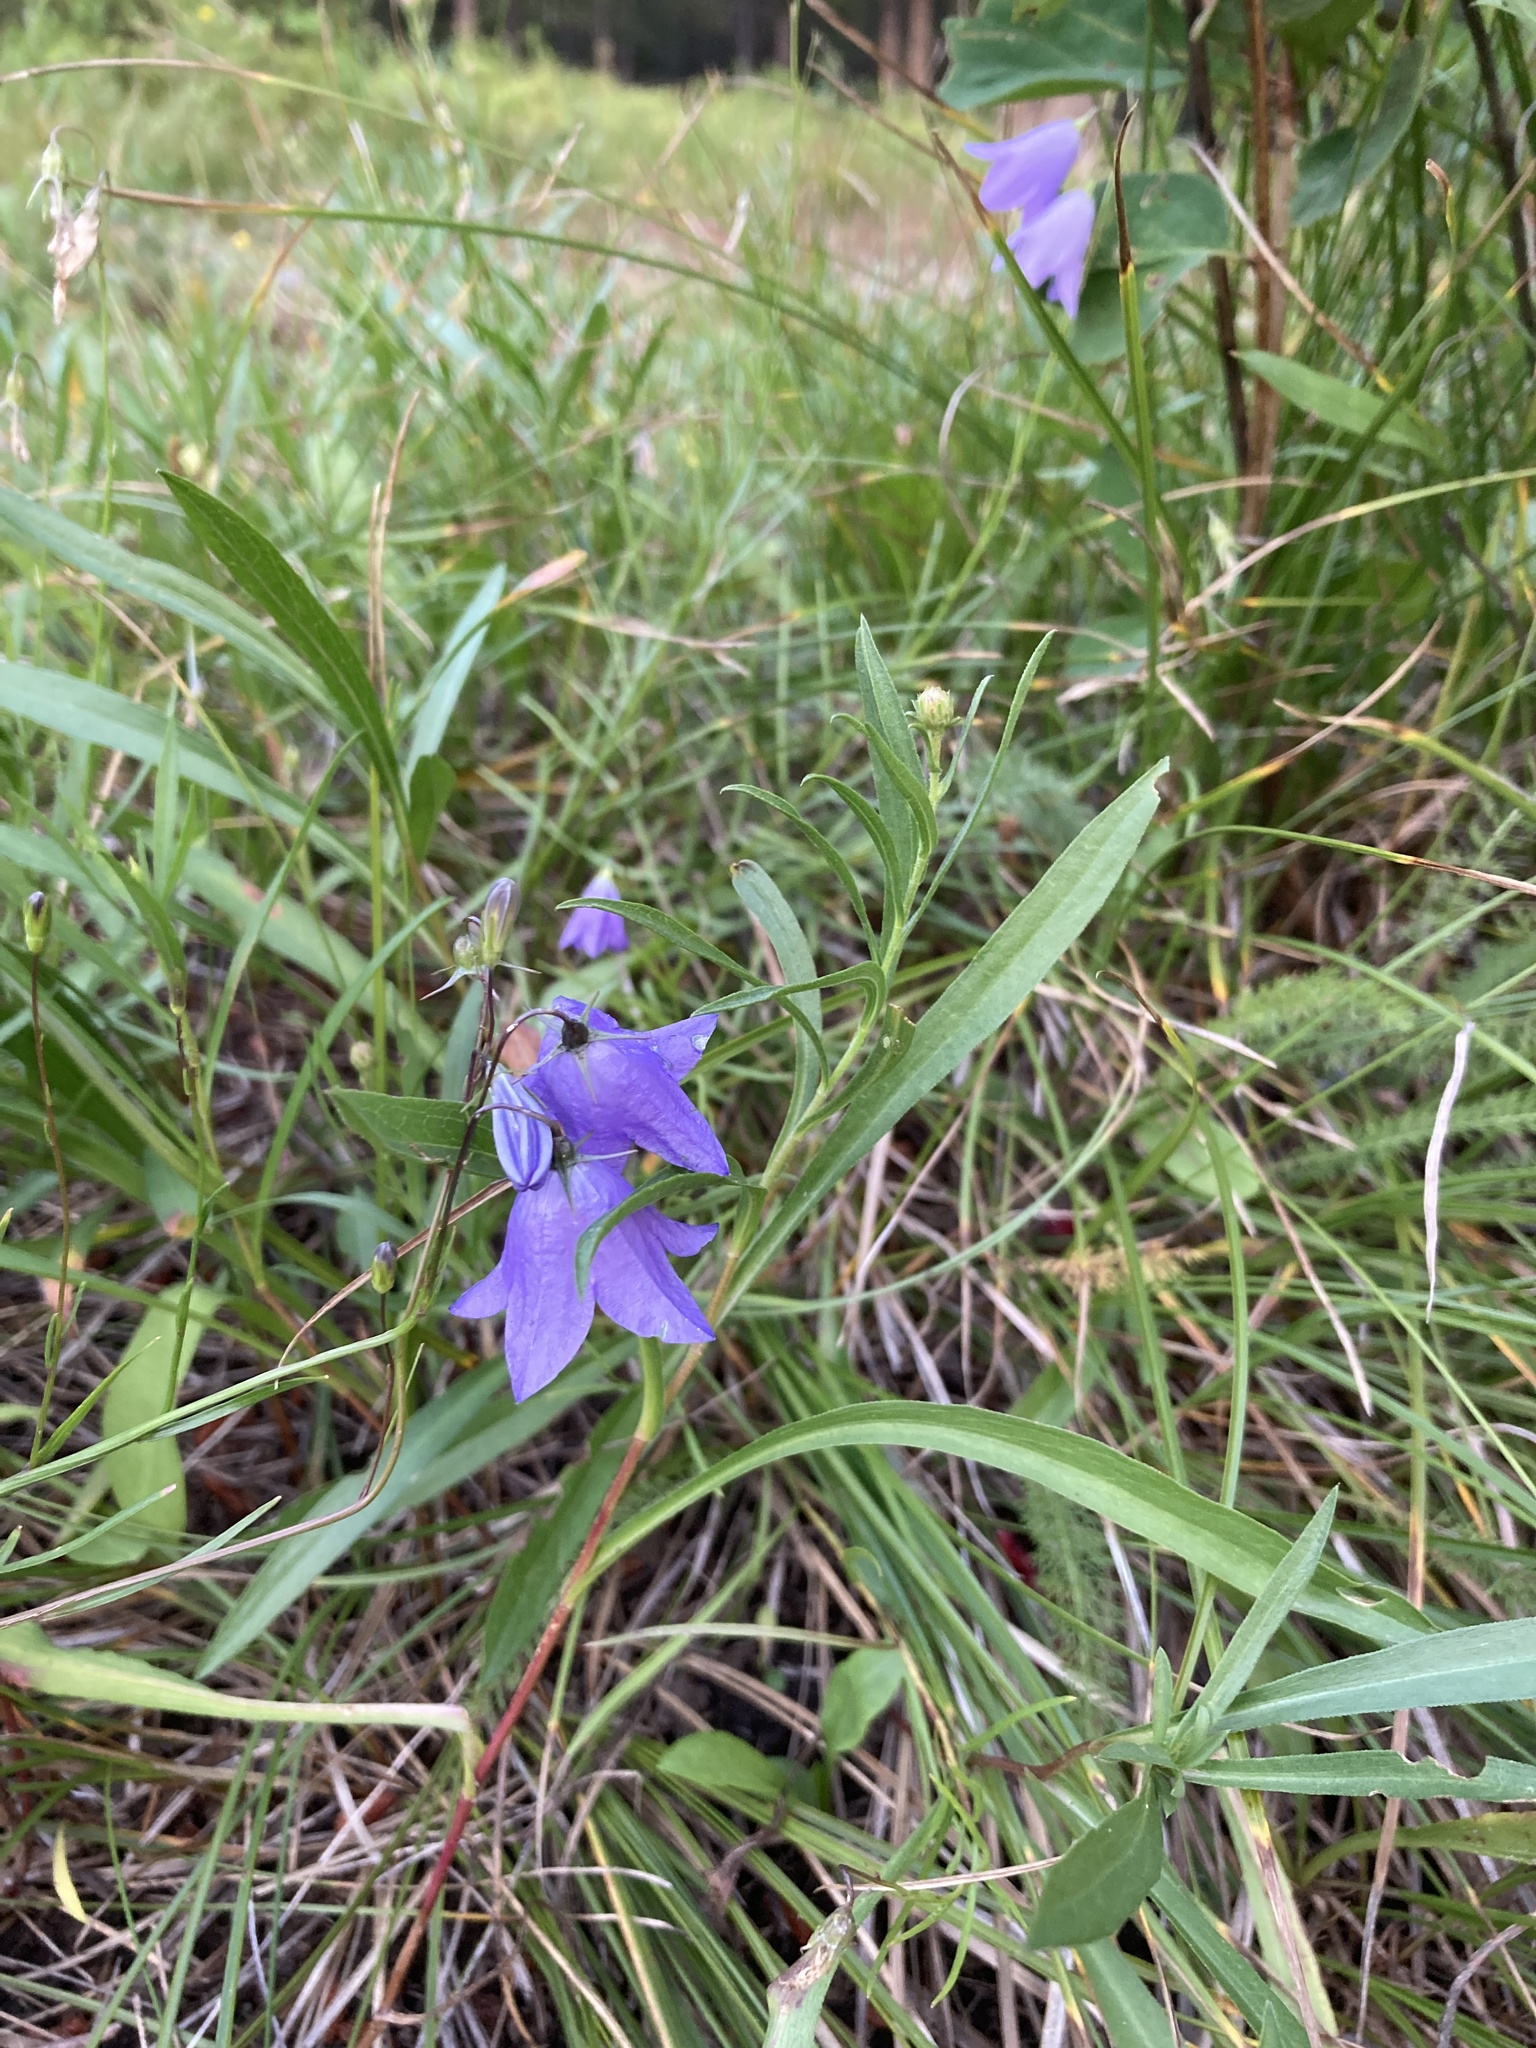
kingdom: Plantae
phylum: Tracheophyta
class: Magnoliopsida
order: Asterales
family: Campanulaceae
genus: Campanula
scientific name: Campanula
